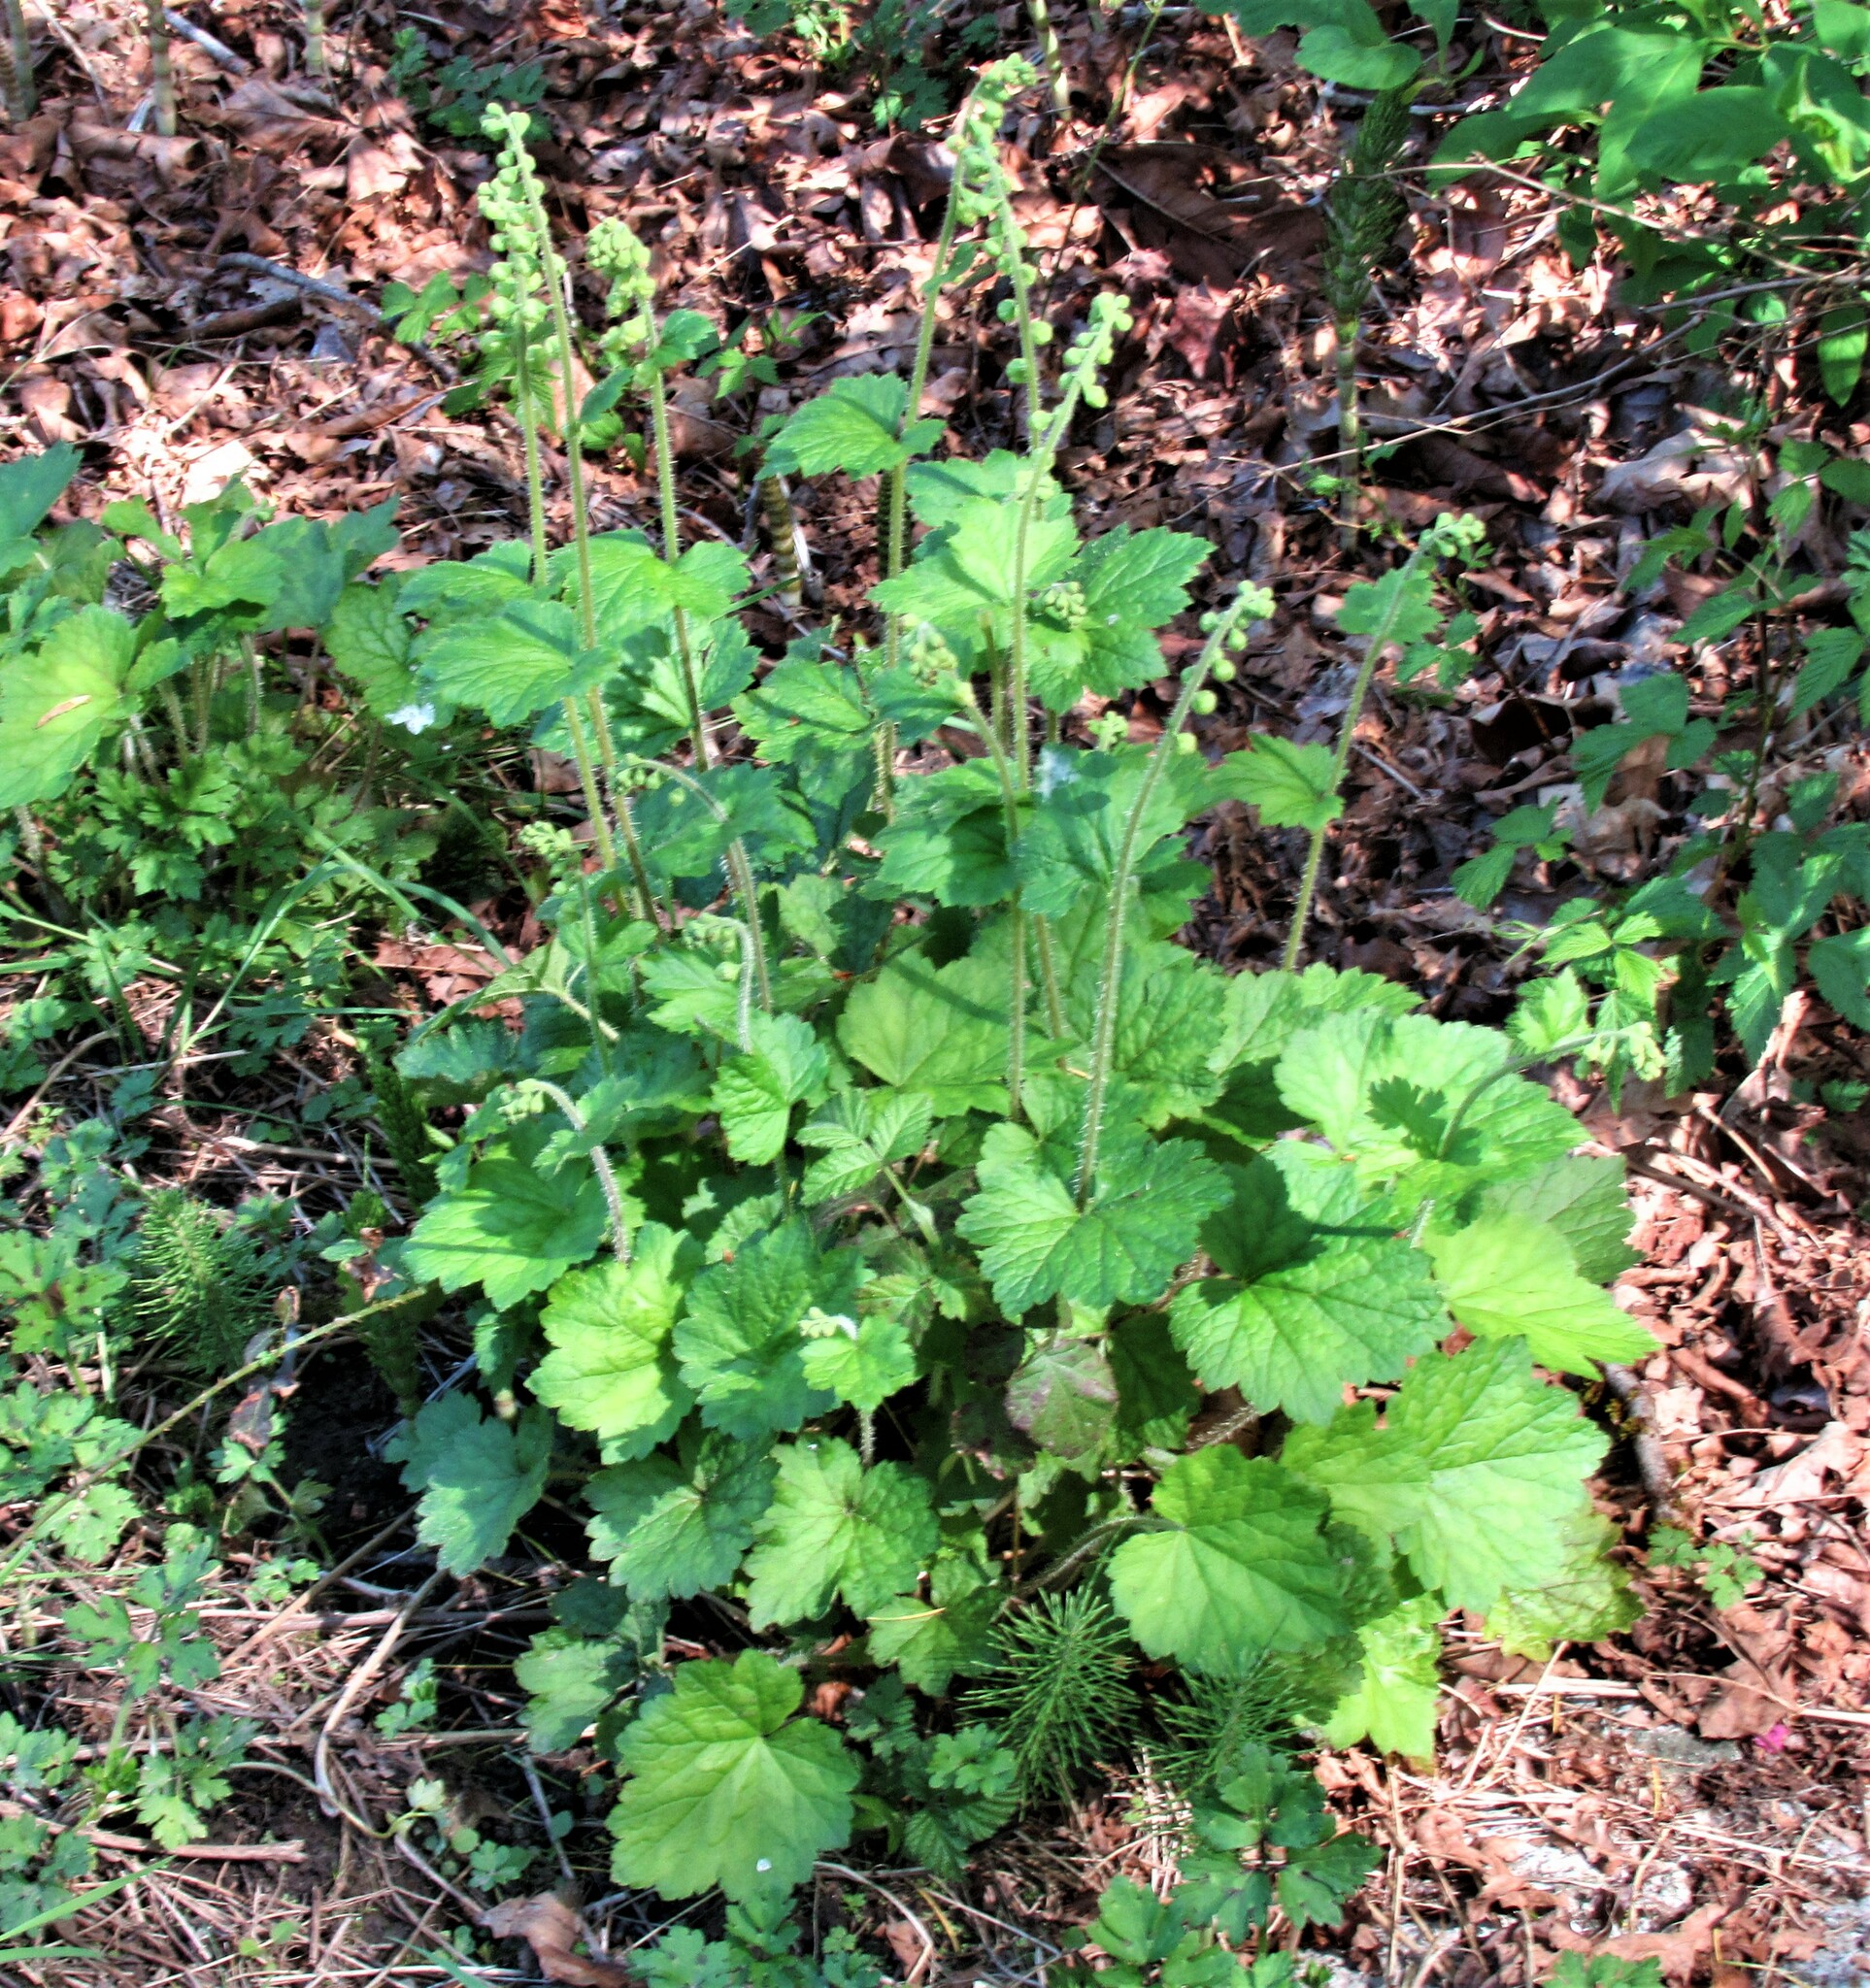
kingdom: Plantae
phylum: Tracheophyta
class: Magnoliopsida
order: Saxifragales
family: Saxifragaceae
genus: Tellima
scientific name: Tellima grandiflora
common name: Fringecups
